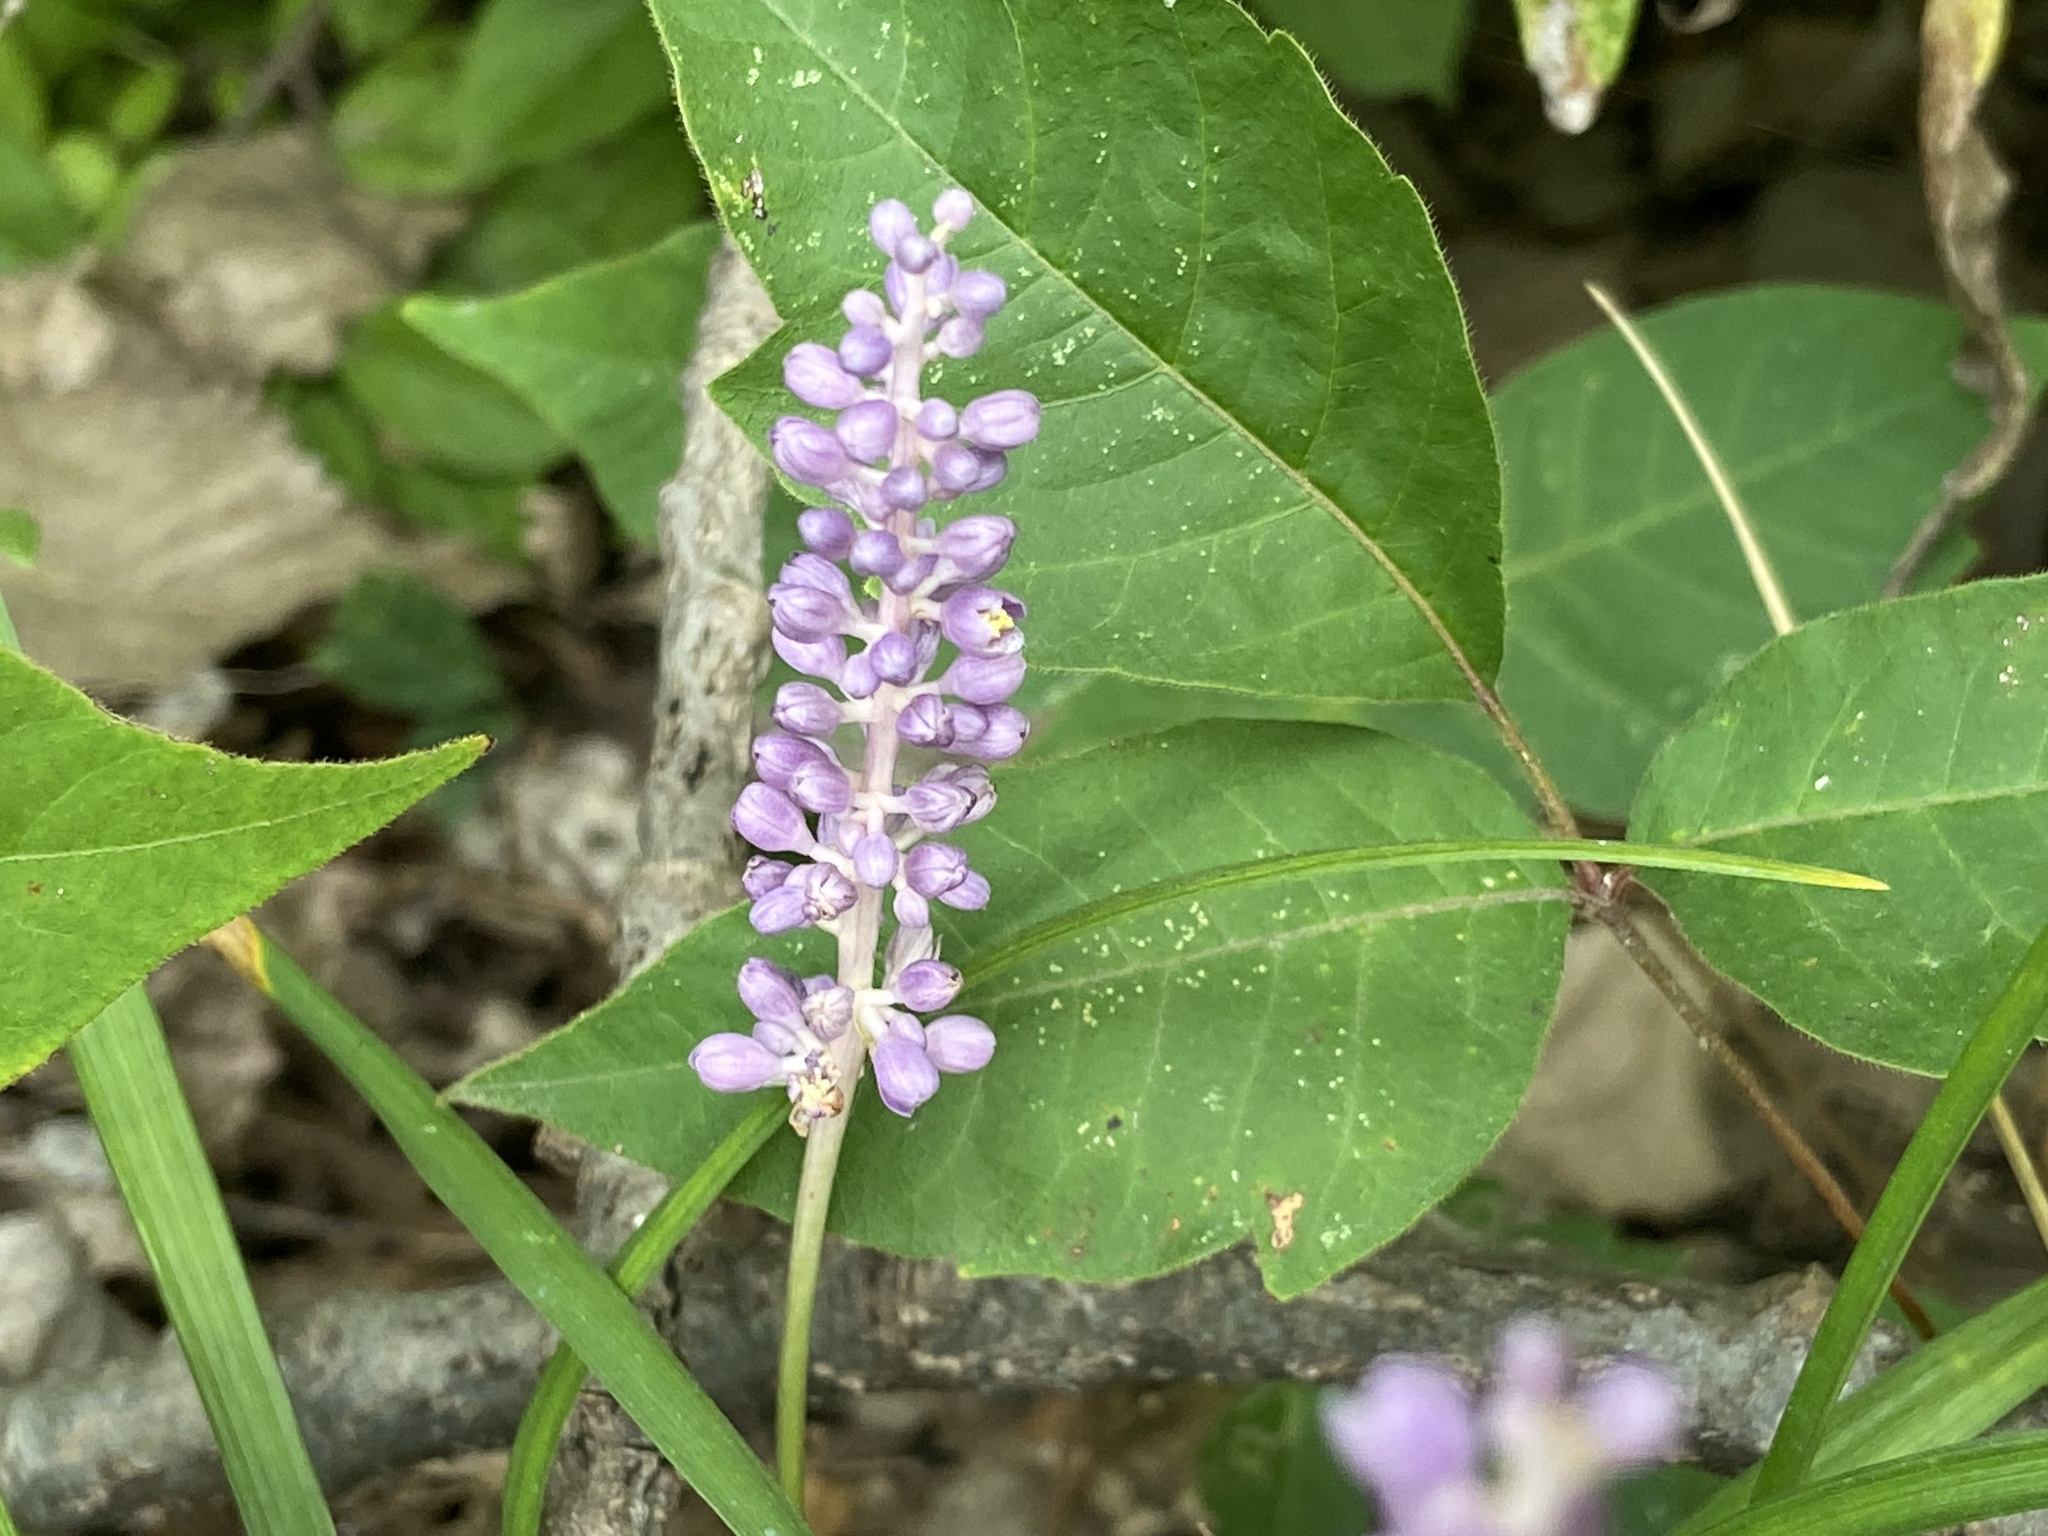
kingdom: Plantae
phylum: Tracheophyta
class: Liliopsida
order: Asparagales
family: Asparagaceae
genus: Liriope
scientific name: Liriope muscari
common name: Big blue lilyturf
